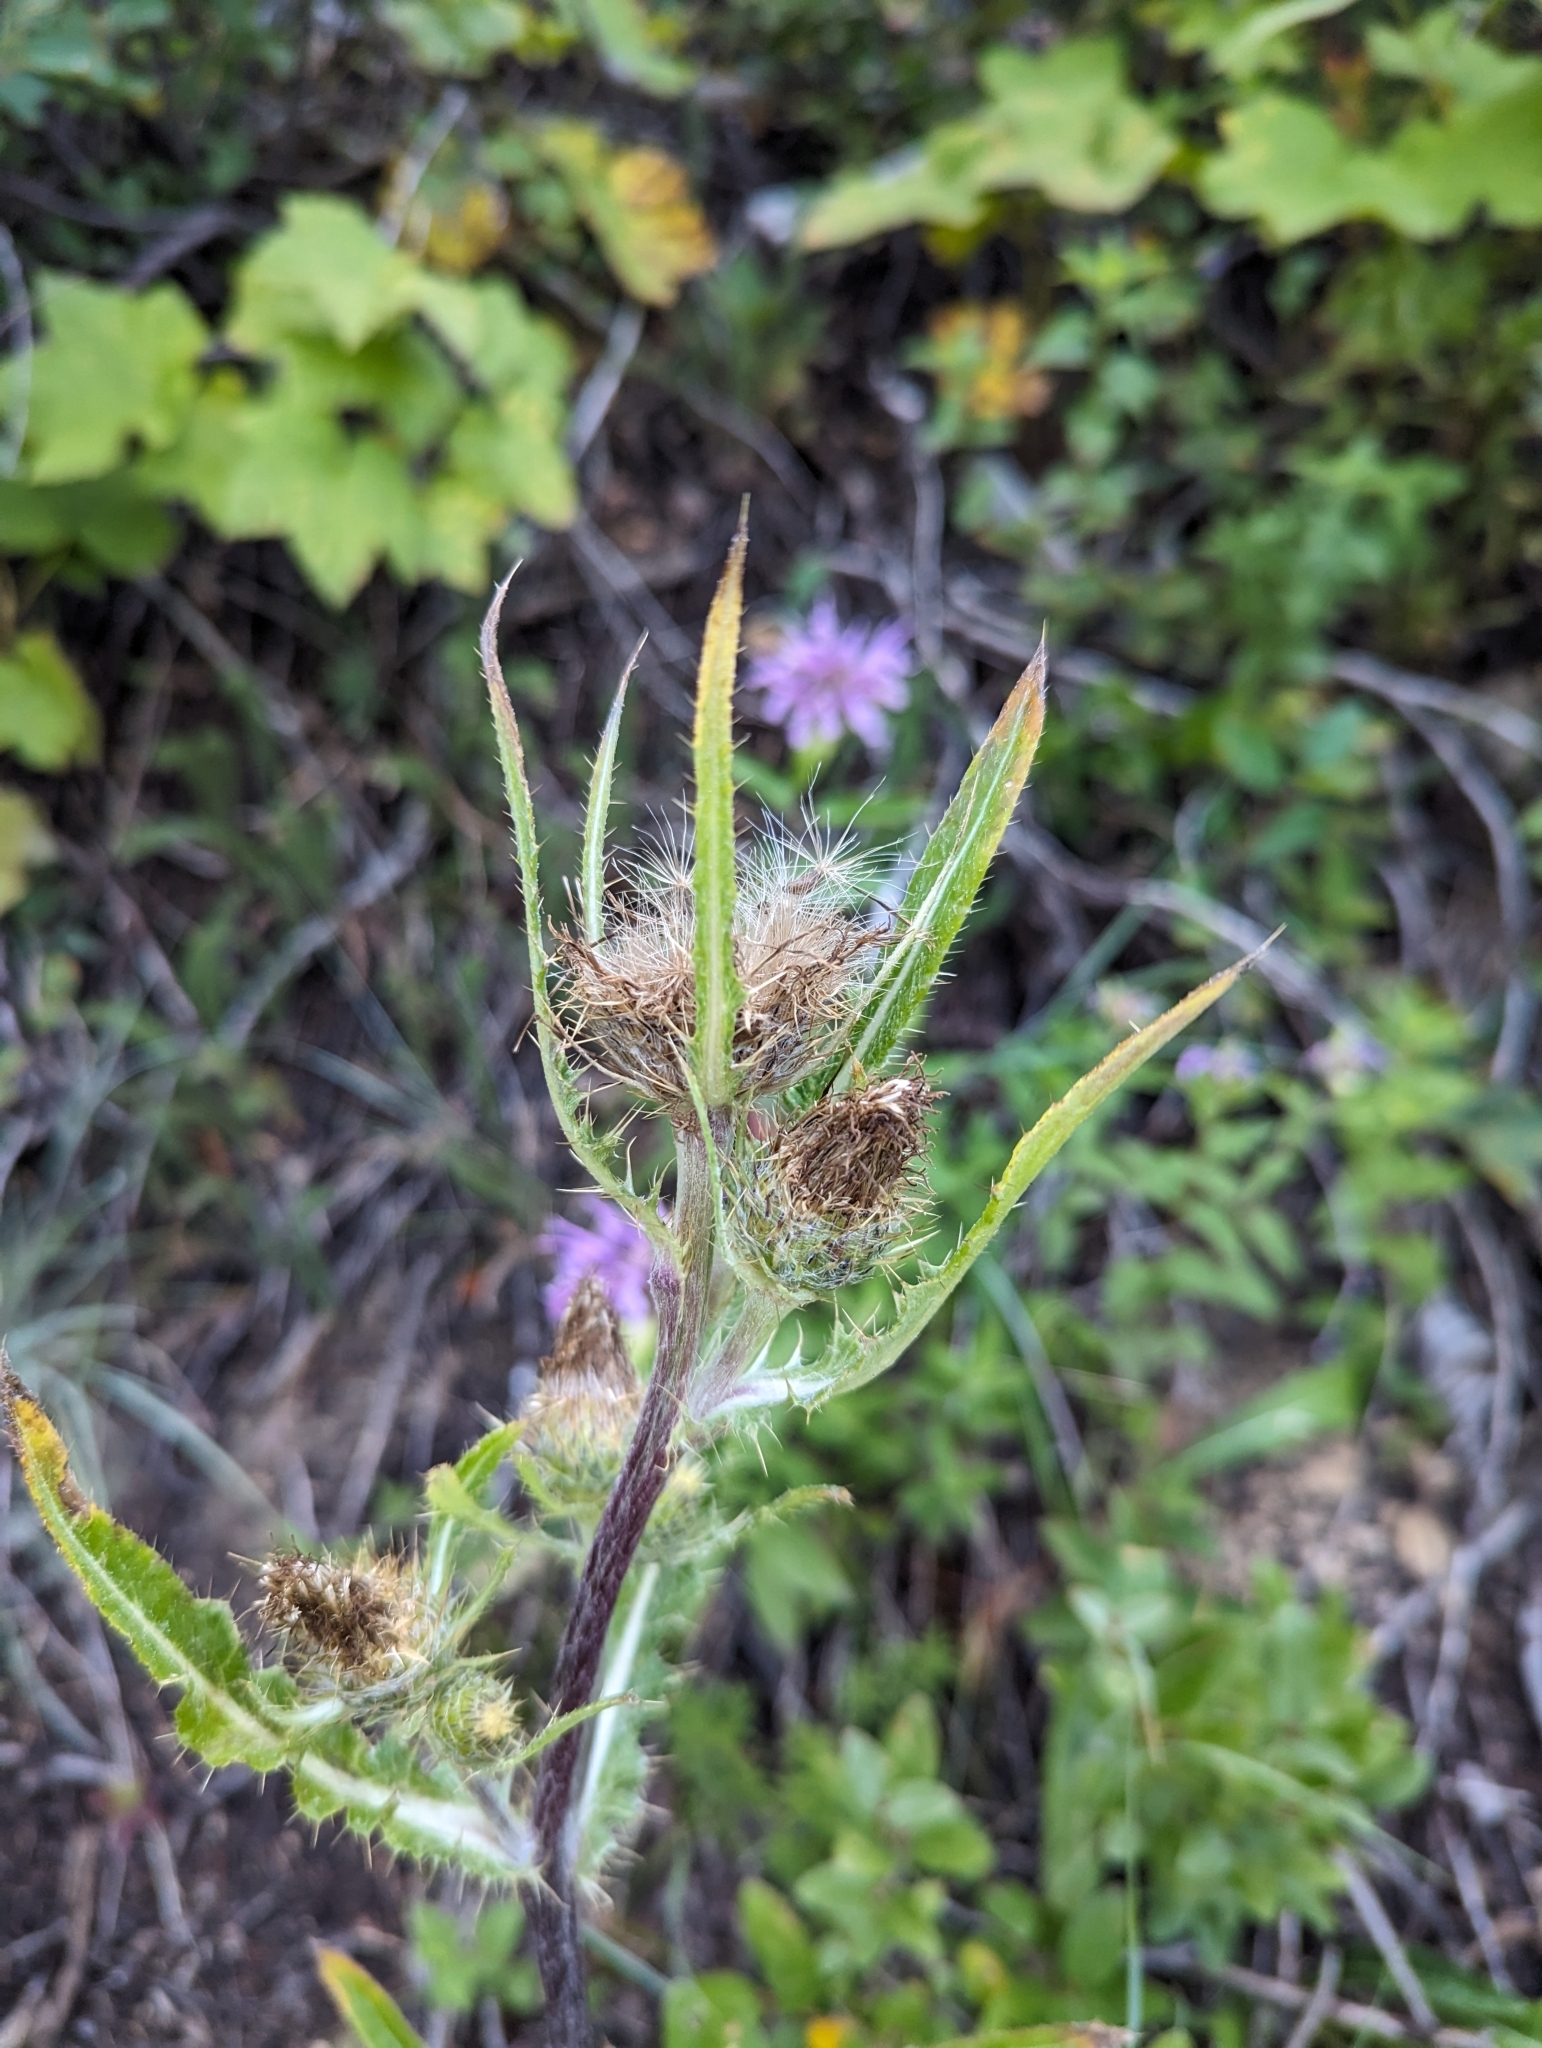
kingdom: Plantae
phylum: Tracheophyta
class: Magnoliopsida
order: Asterales
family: Asteraceae
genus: Cirsium
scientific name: Cirsium hookerianum
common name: Hooker's thistle
